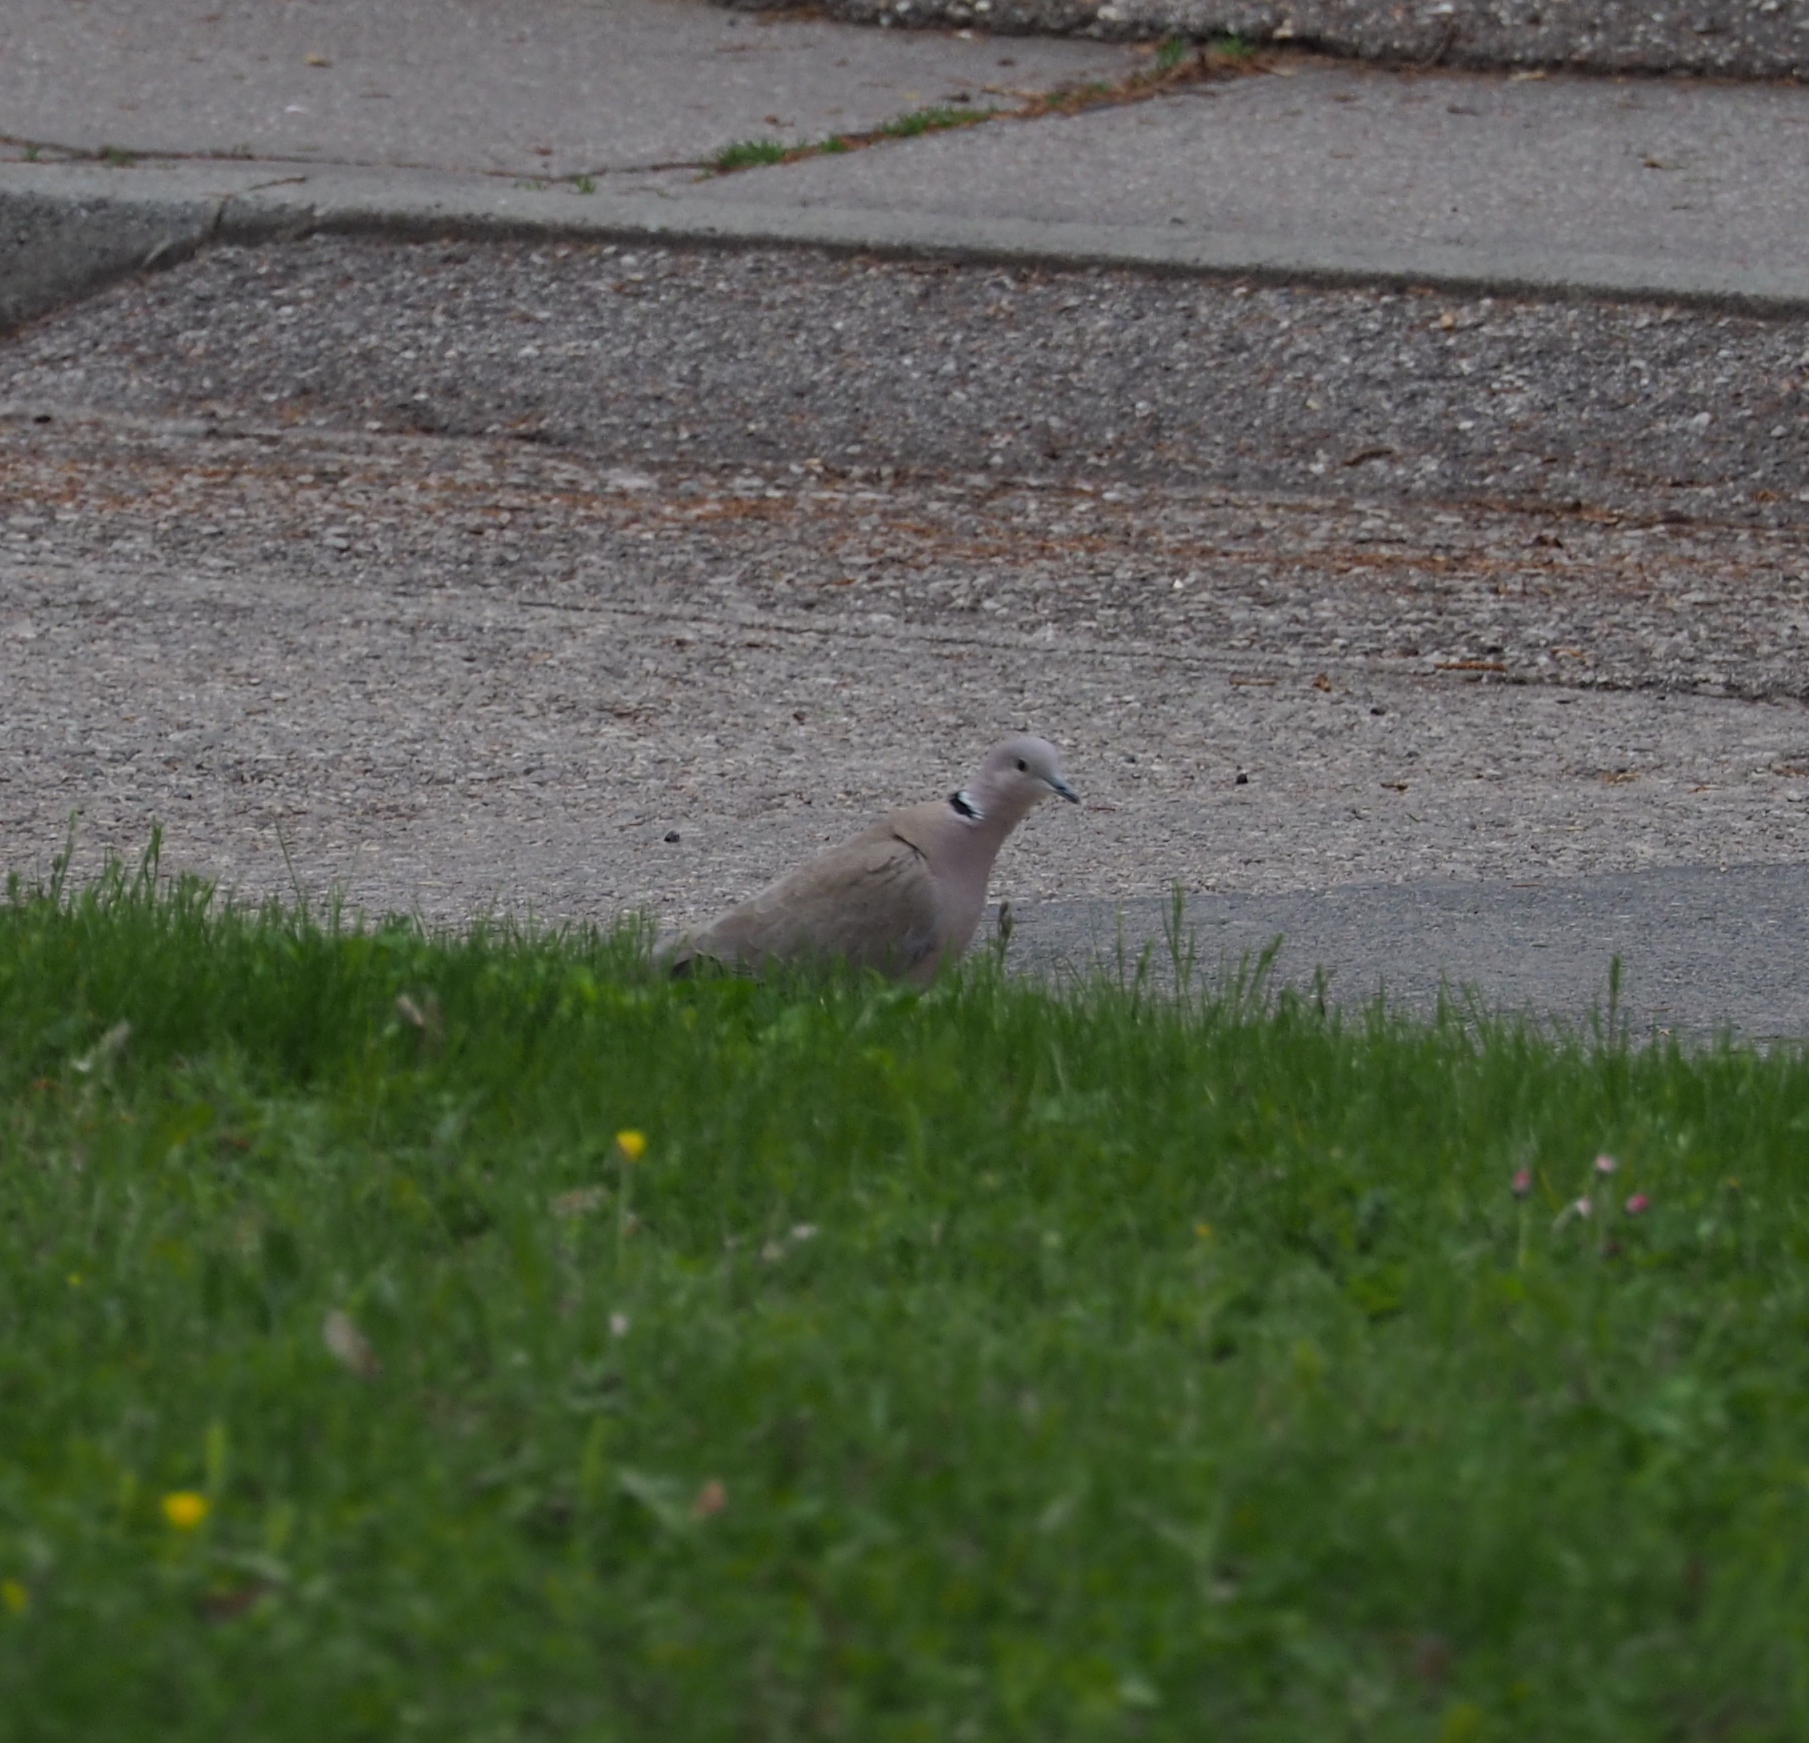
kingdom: Animalia
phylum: Chordata
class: Aves
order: Columbiformes
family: Columbidae
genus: Streptopelia
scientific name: Streptopelia decaocto
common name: Eurasian collared dove
